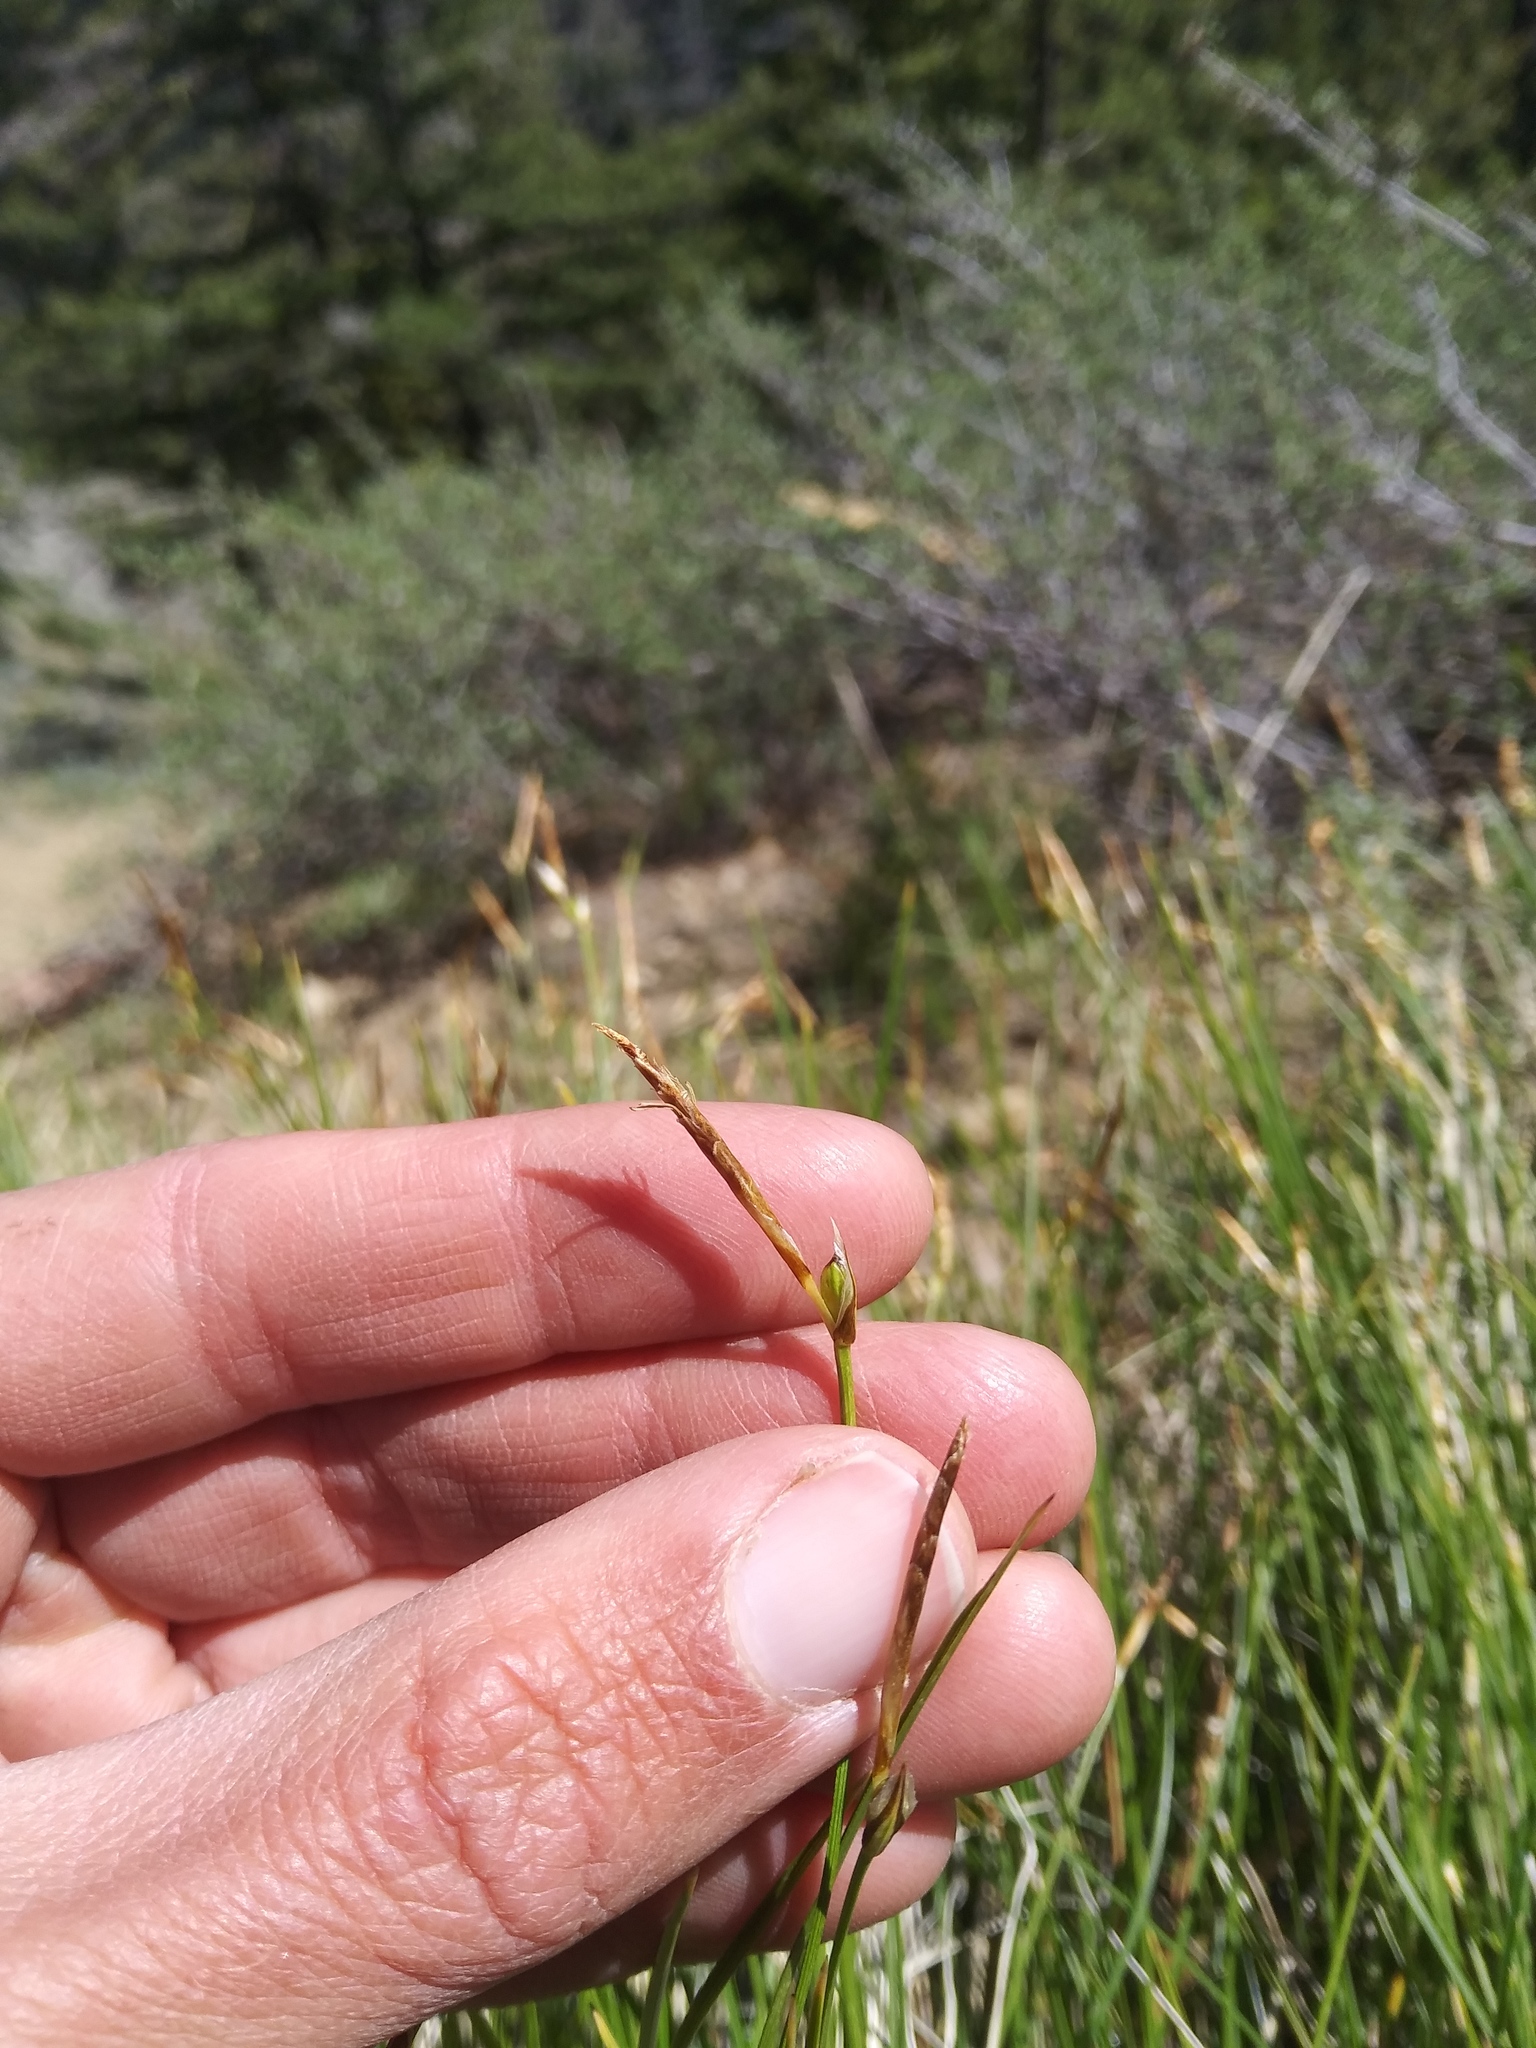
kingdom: Plantae
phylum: Tracheophyta
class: Liliopsida
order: Poales
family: Cyperaceae
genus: Carex
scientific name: Carex geyeri
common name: Elk sedge
